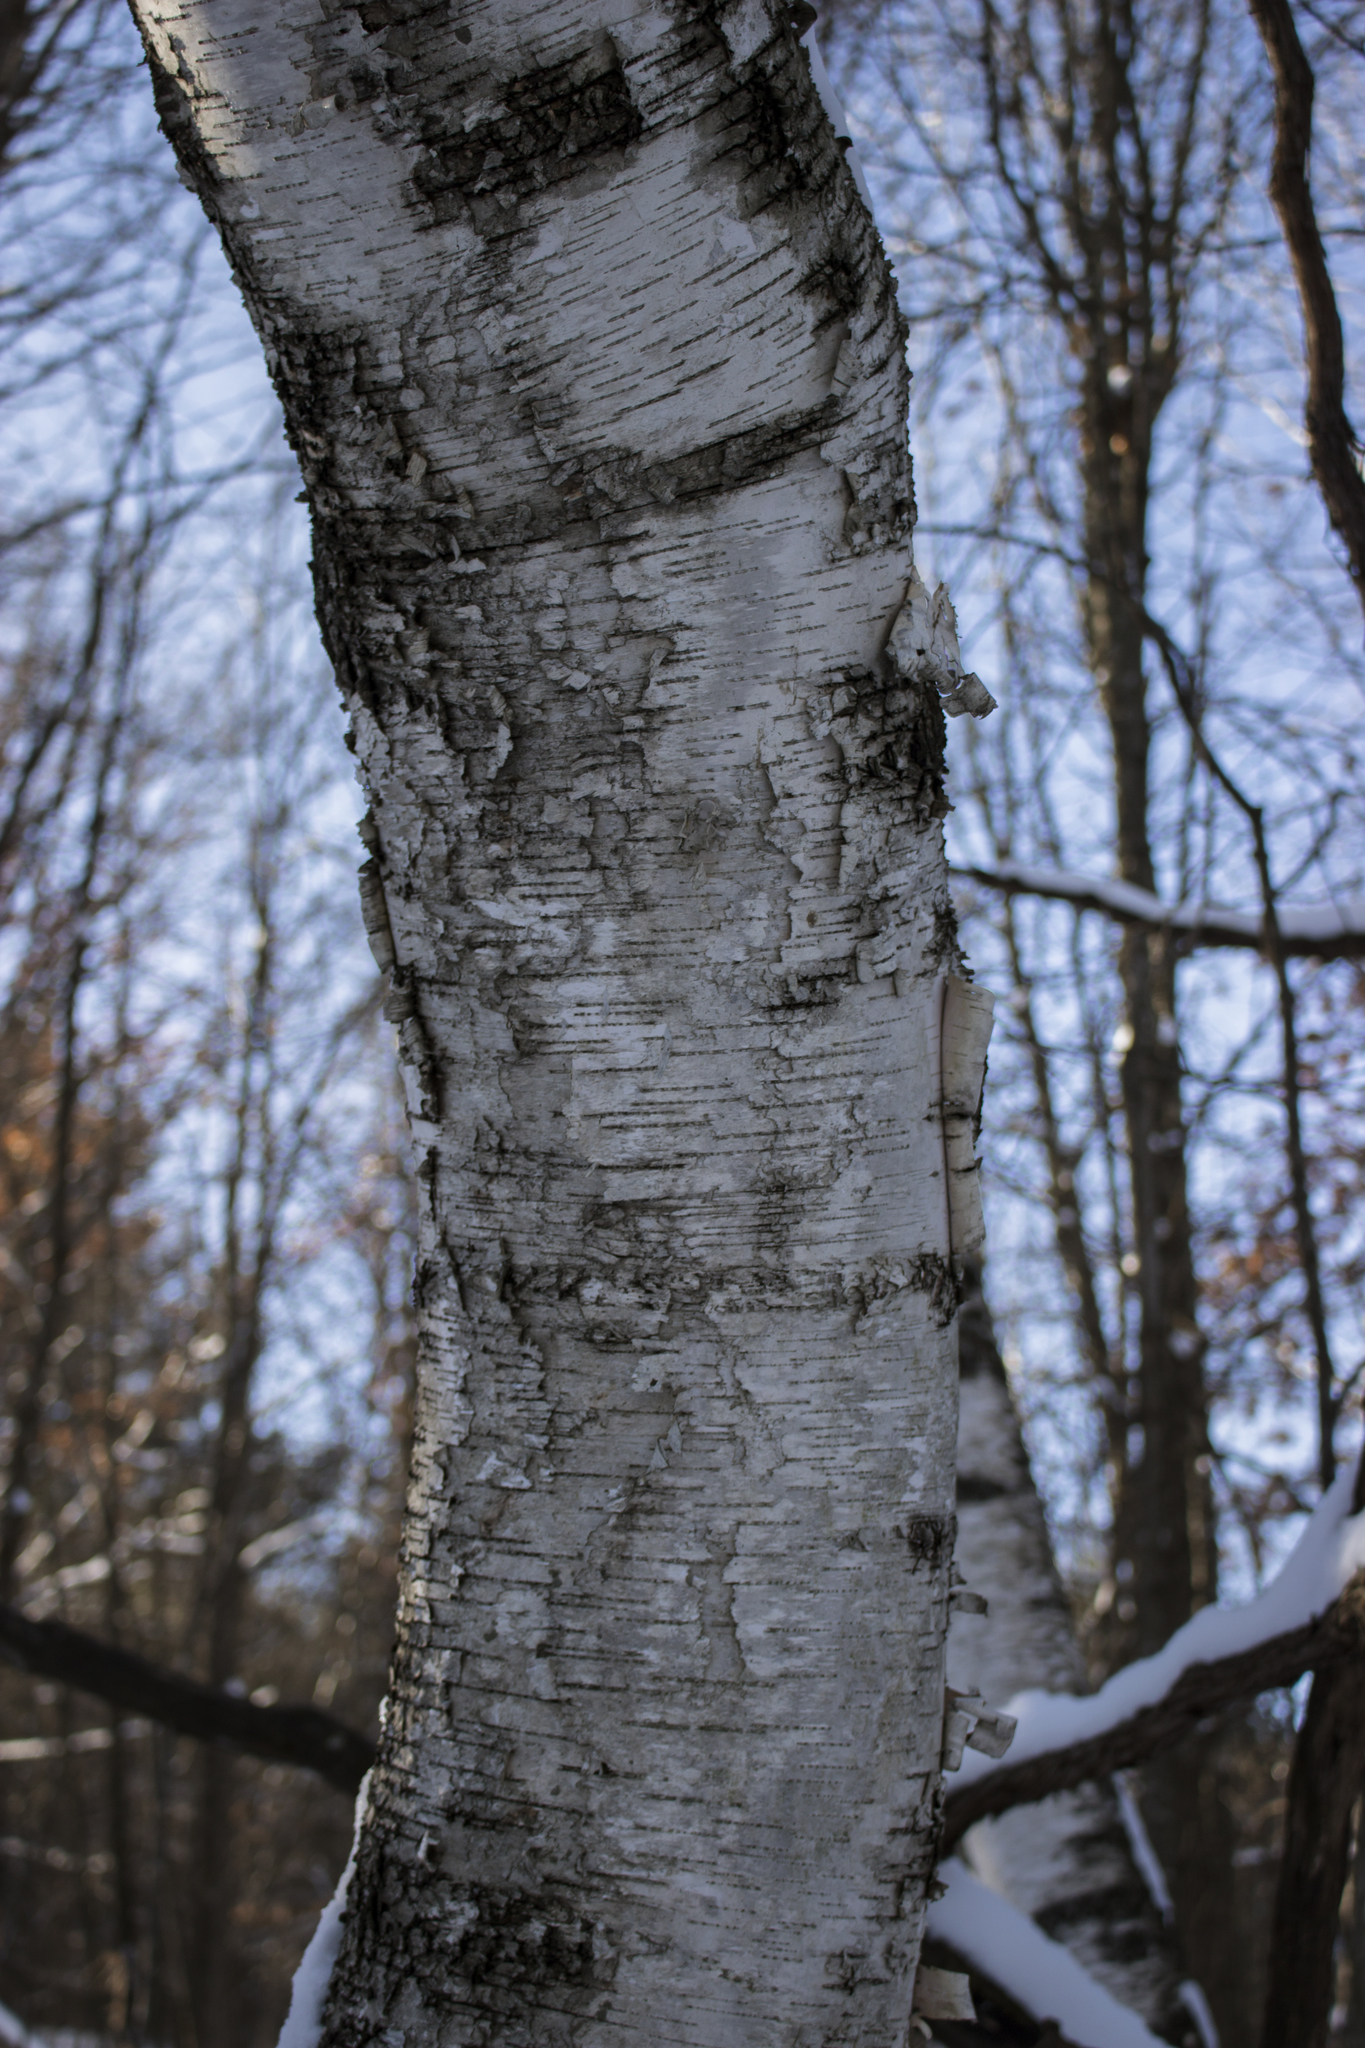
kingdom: Plantae
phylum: Tracheophyta
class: Magnoliopsida
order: Fagales
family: Betulaceae
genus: Betula
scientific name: Betula papyrifera
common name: Paper birch
